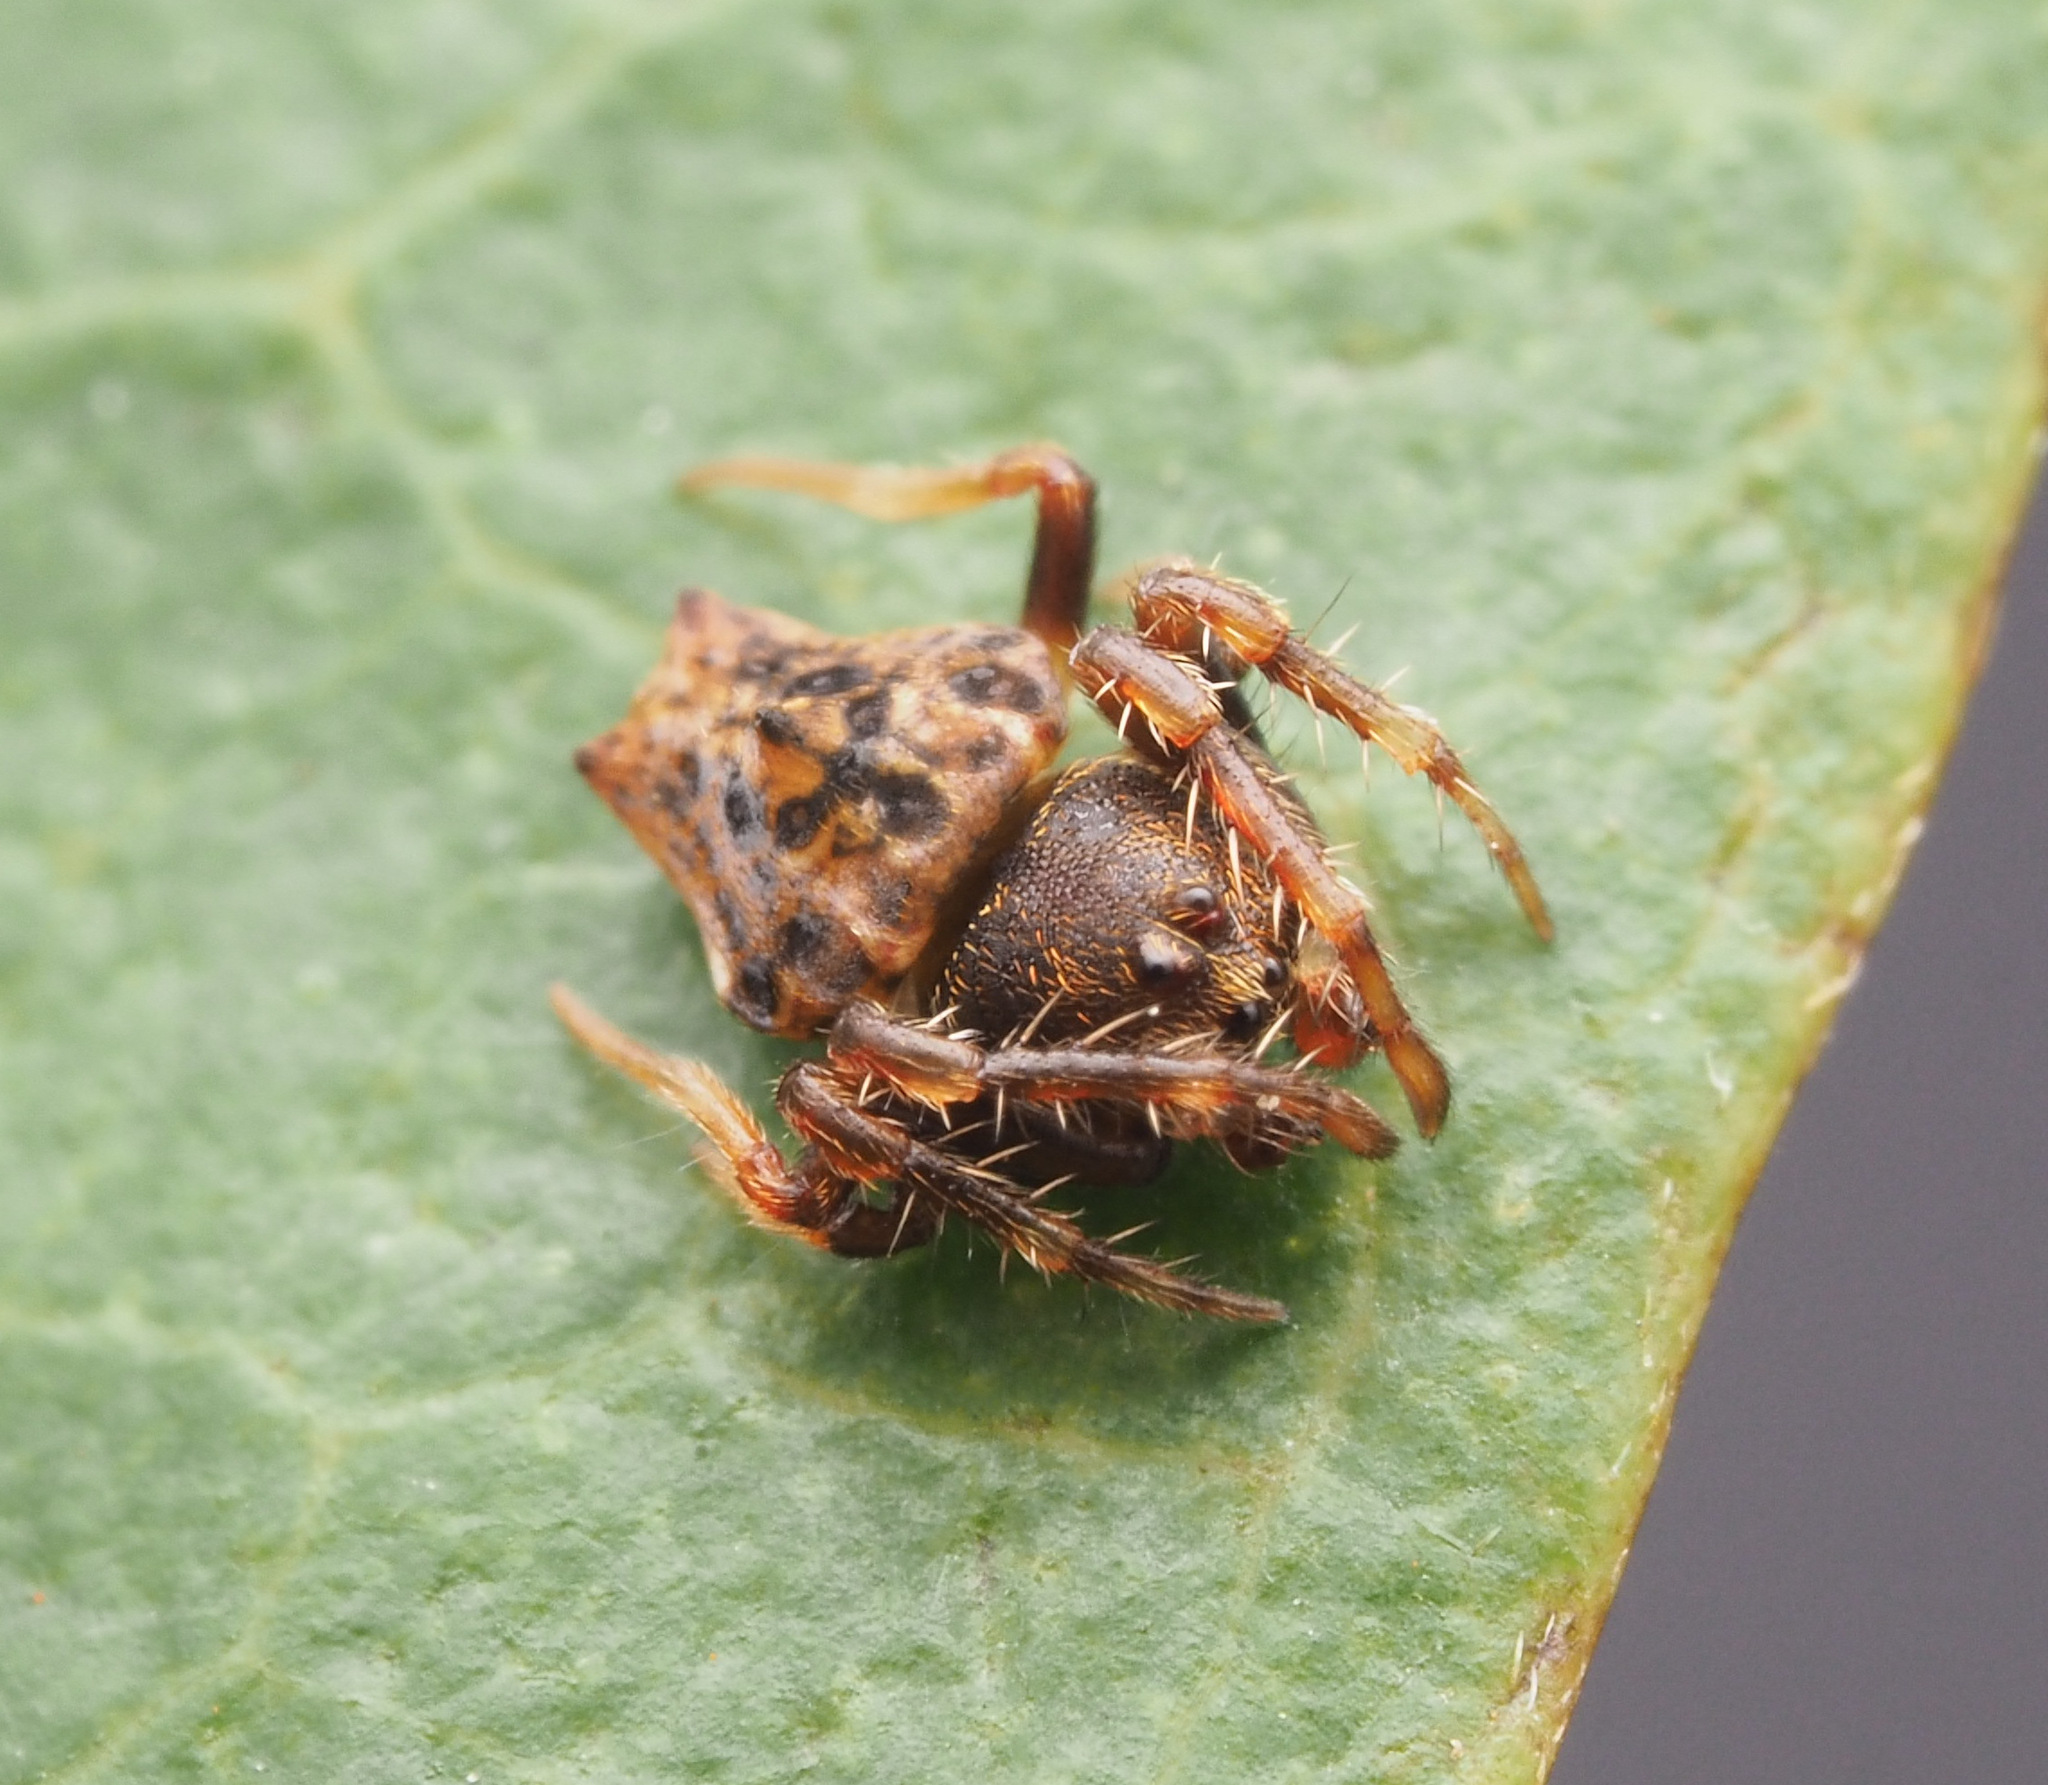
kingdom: Animalia
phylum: Arthropoda
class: Arachnida
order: Araneae
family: Arkyidae
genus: Arkys
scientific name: Arkys
